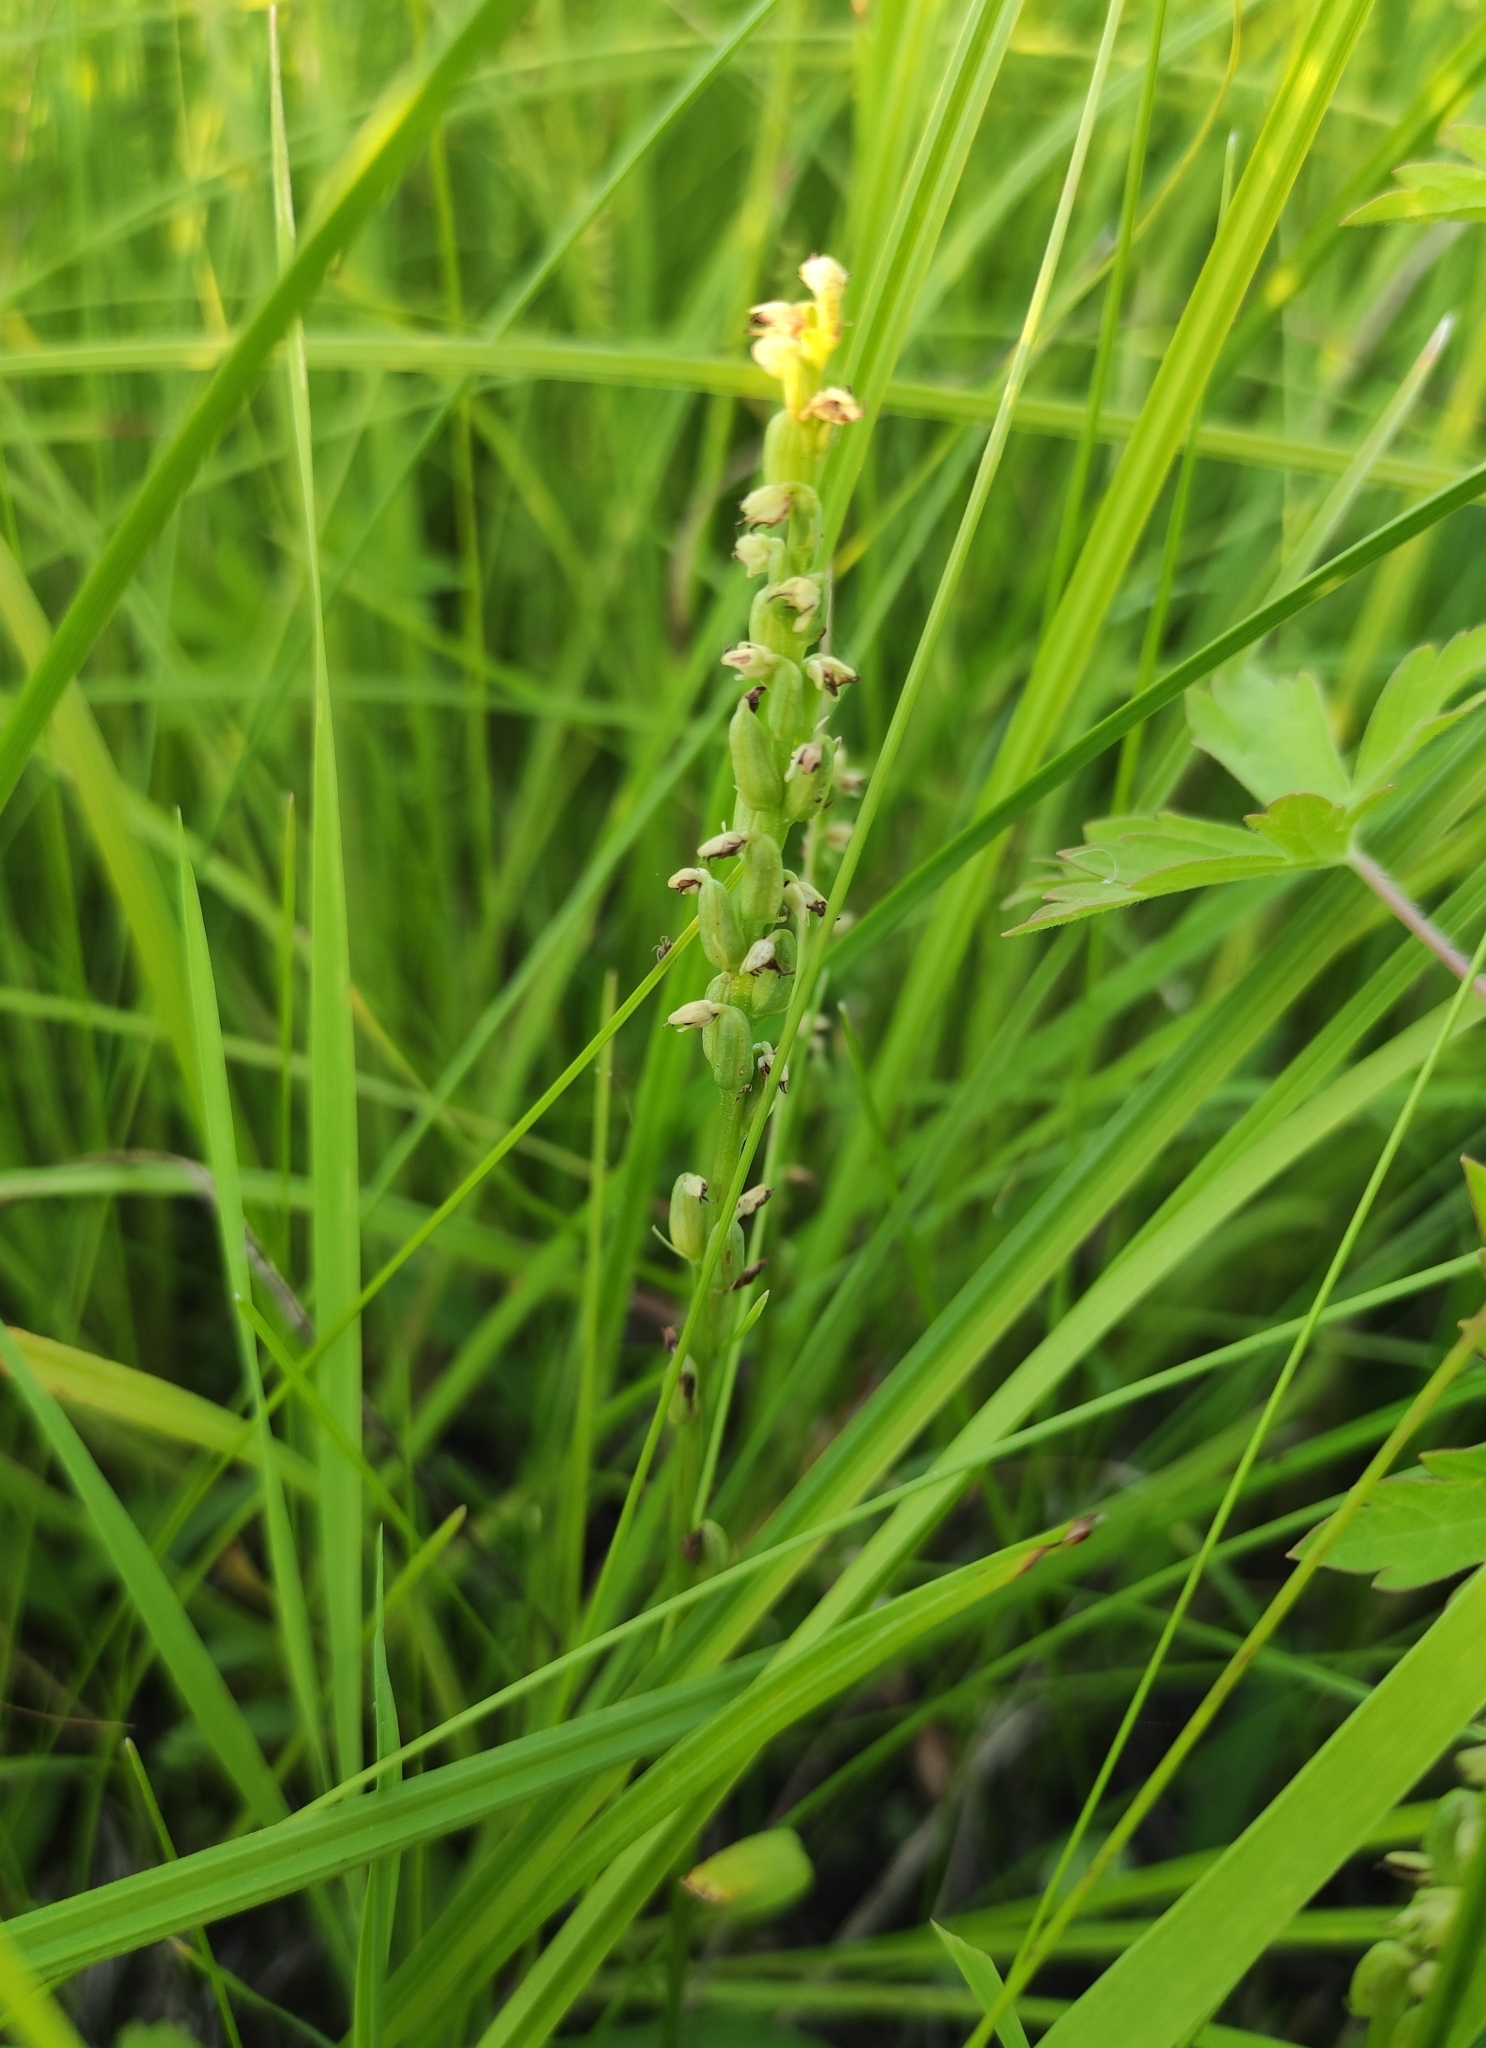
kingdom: Plantae
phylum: Tracheophyta
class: Liliopsida
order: Asparagales
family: Orchidaceae
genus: Herminium
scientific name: Herminium monorchis
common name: Musk orchid
